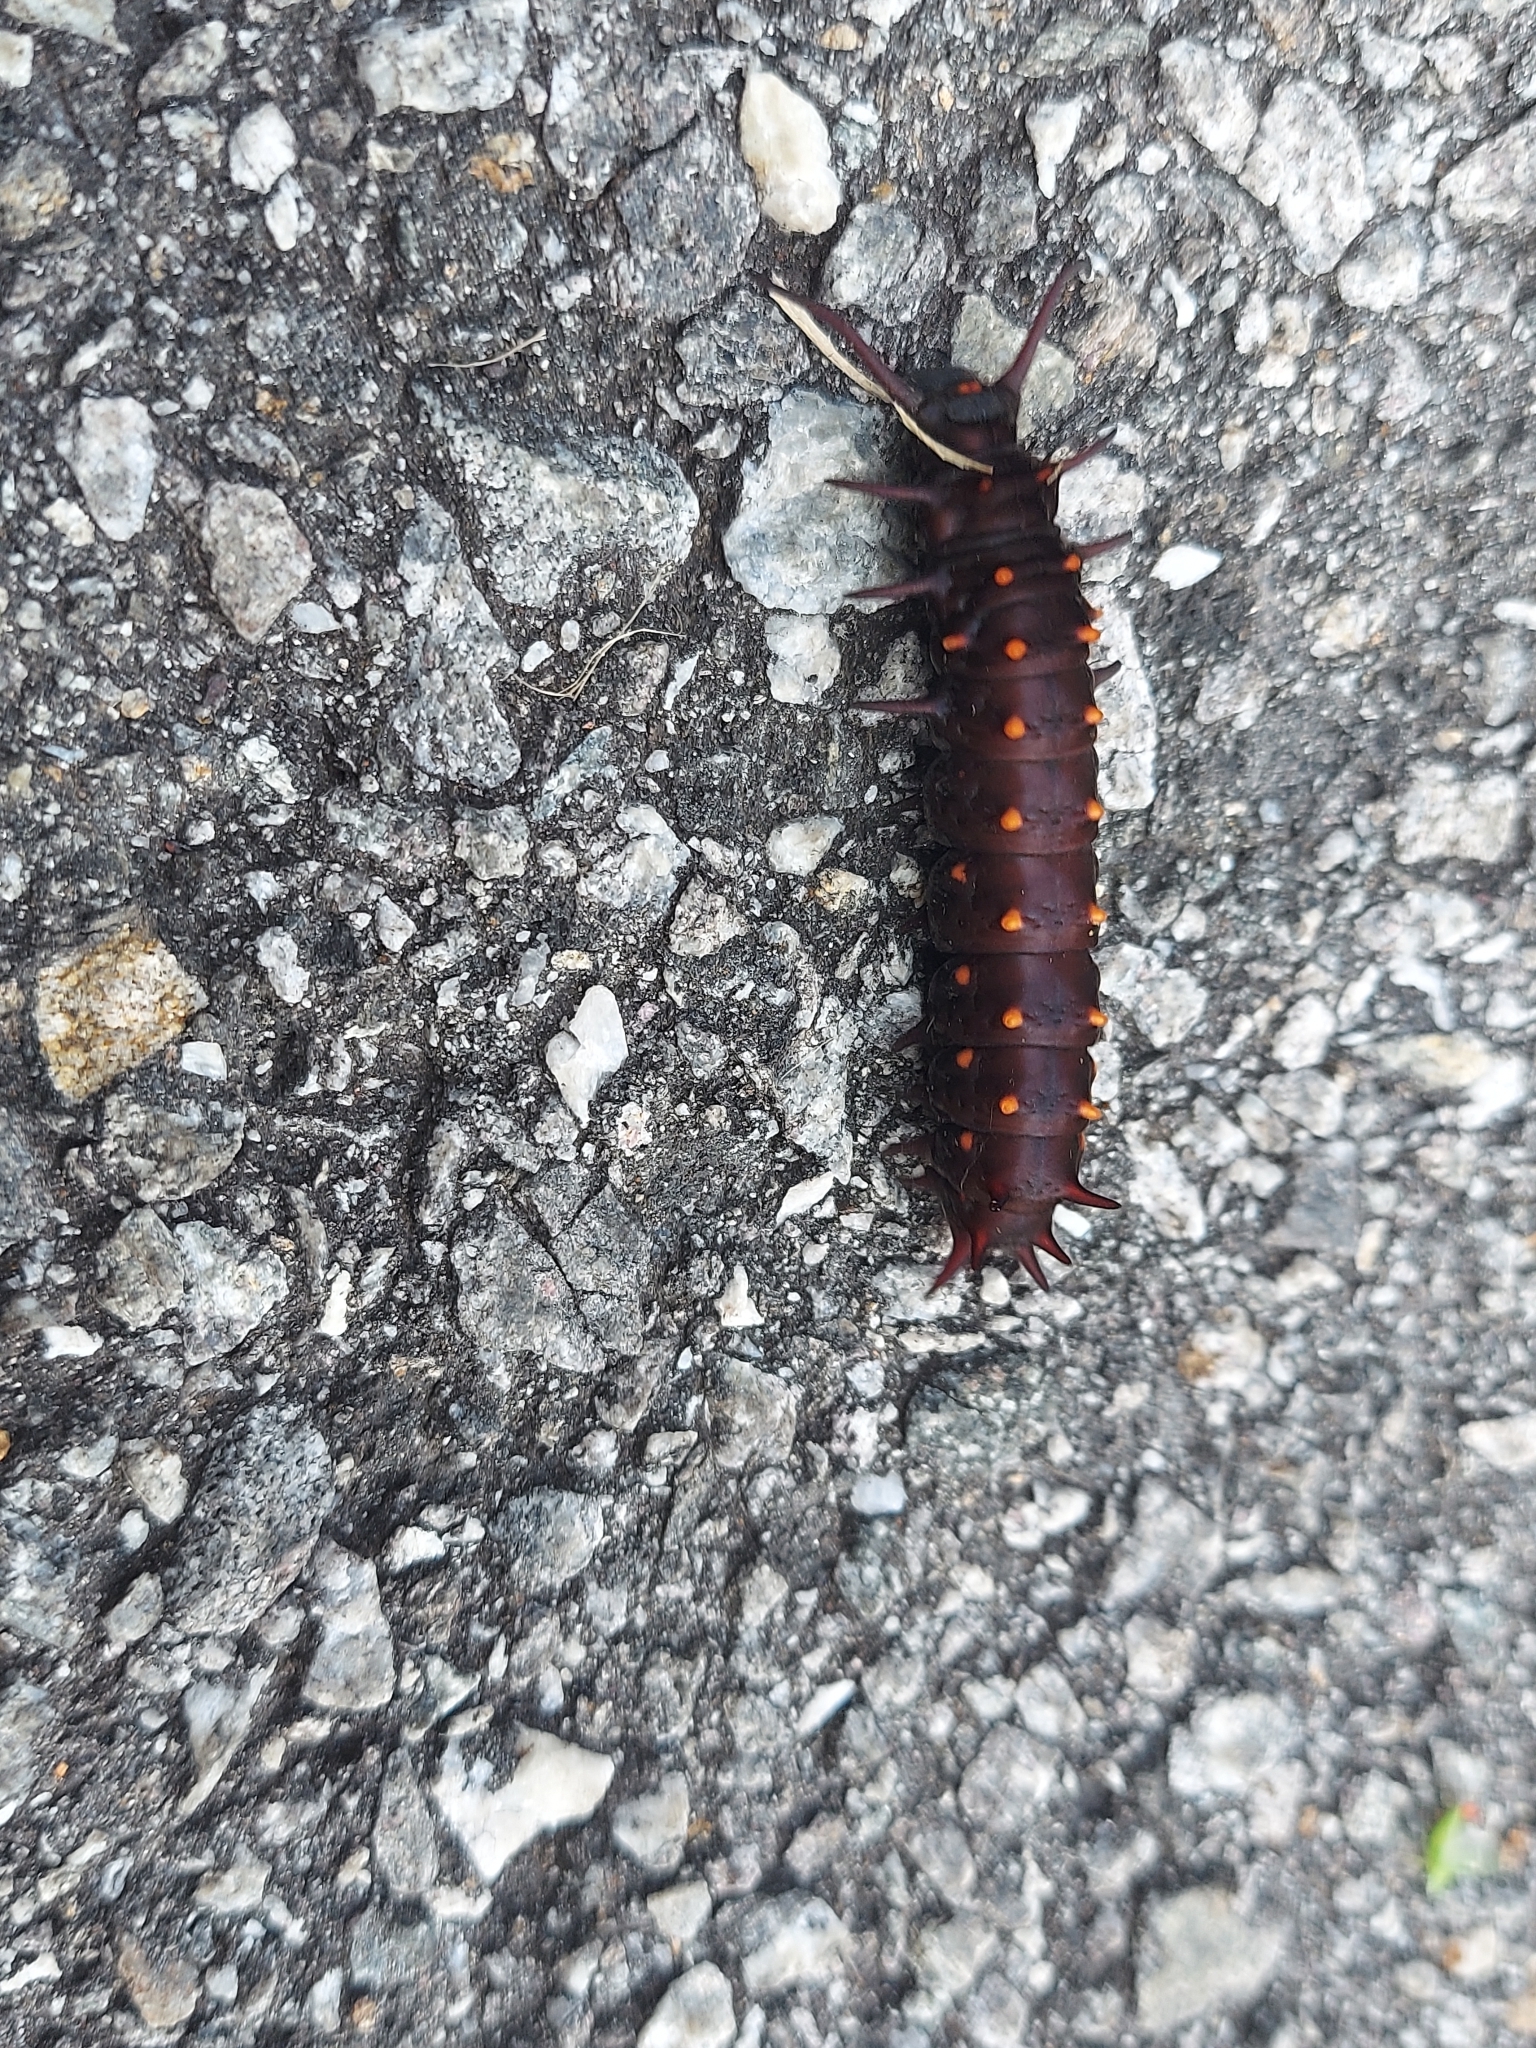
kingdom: Animalia
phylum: Arthropoda
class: Insecta
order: Lepidoptera
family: Papilionidae
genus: Battus
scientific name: Battus philenor
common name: Pipevine swallowtail
